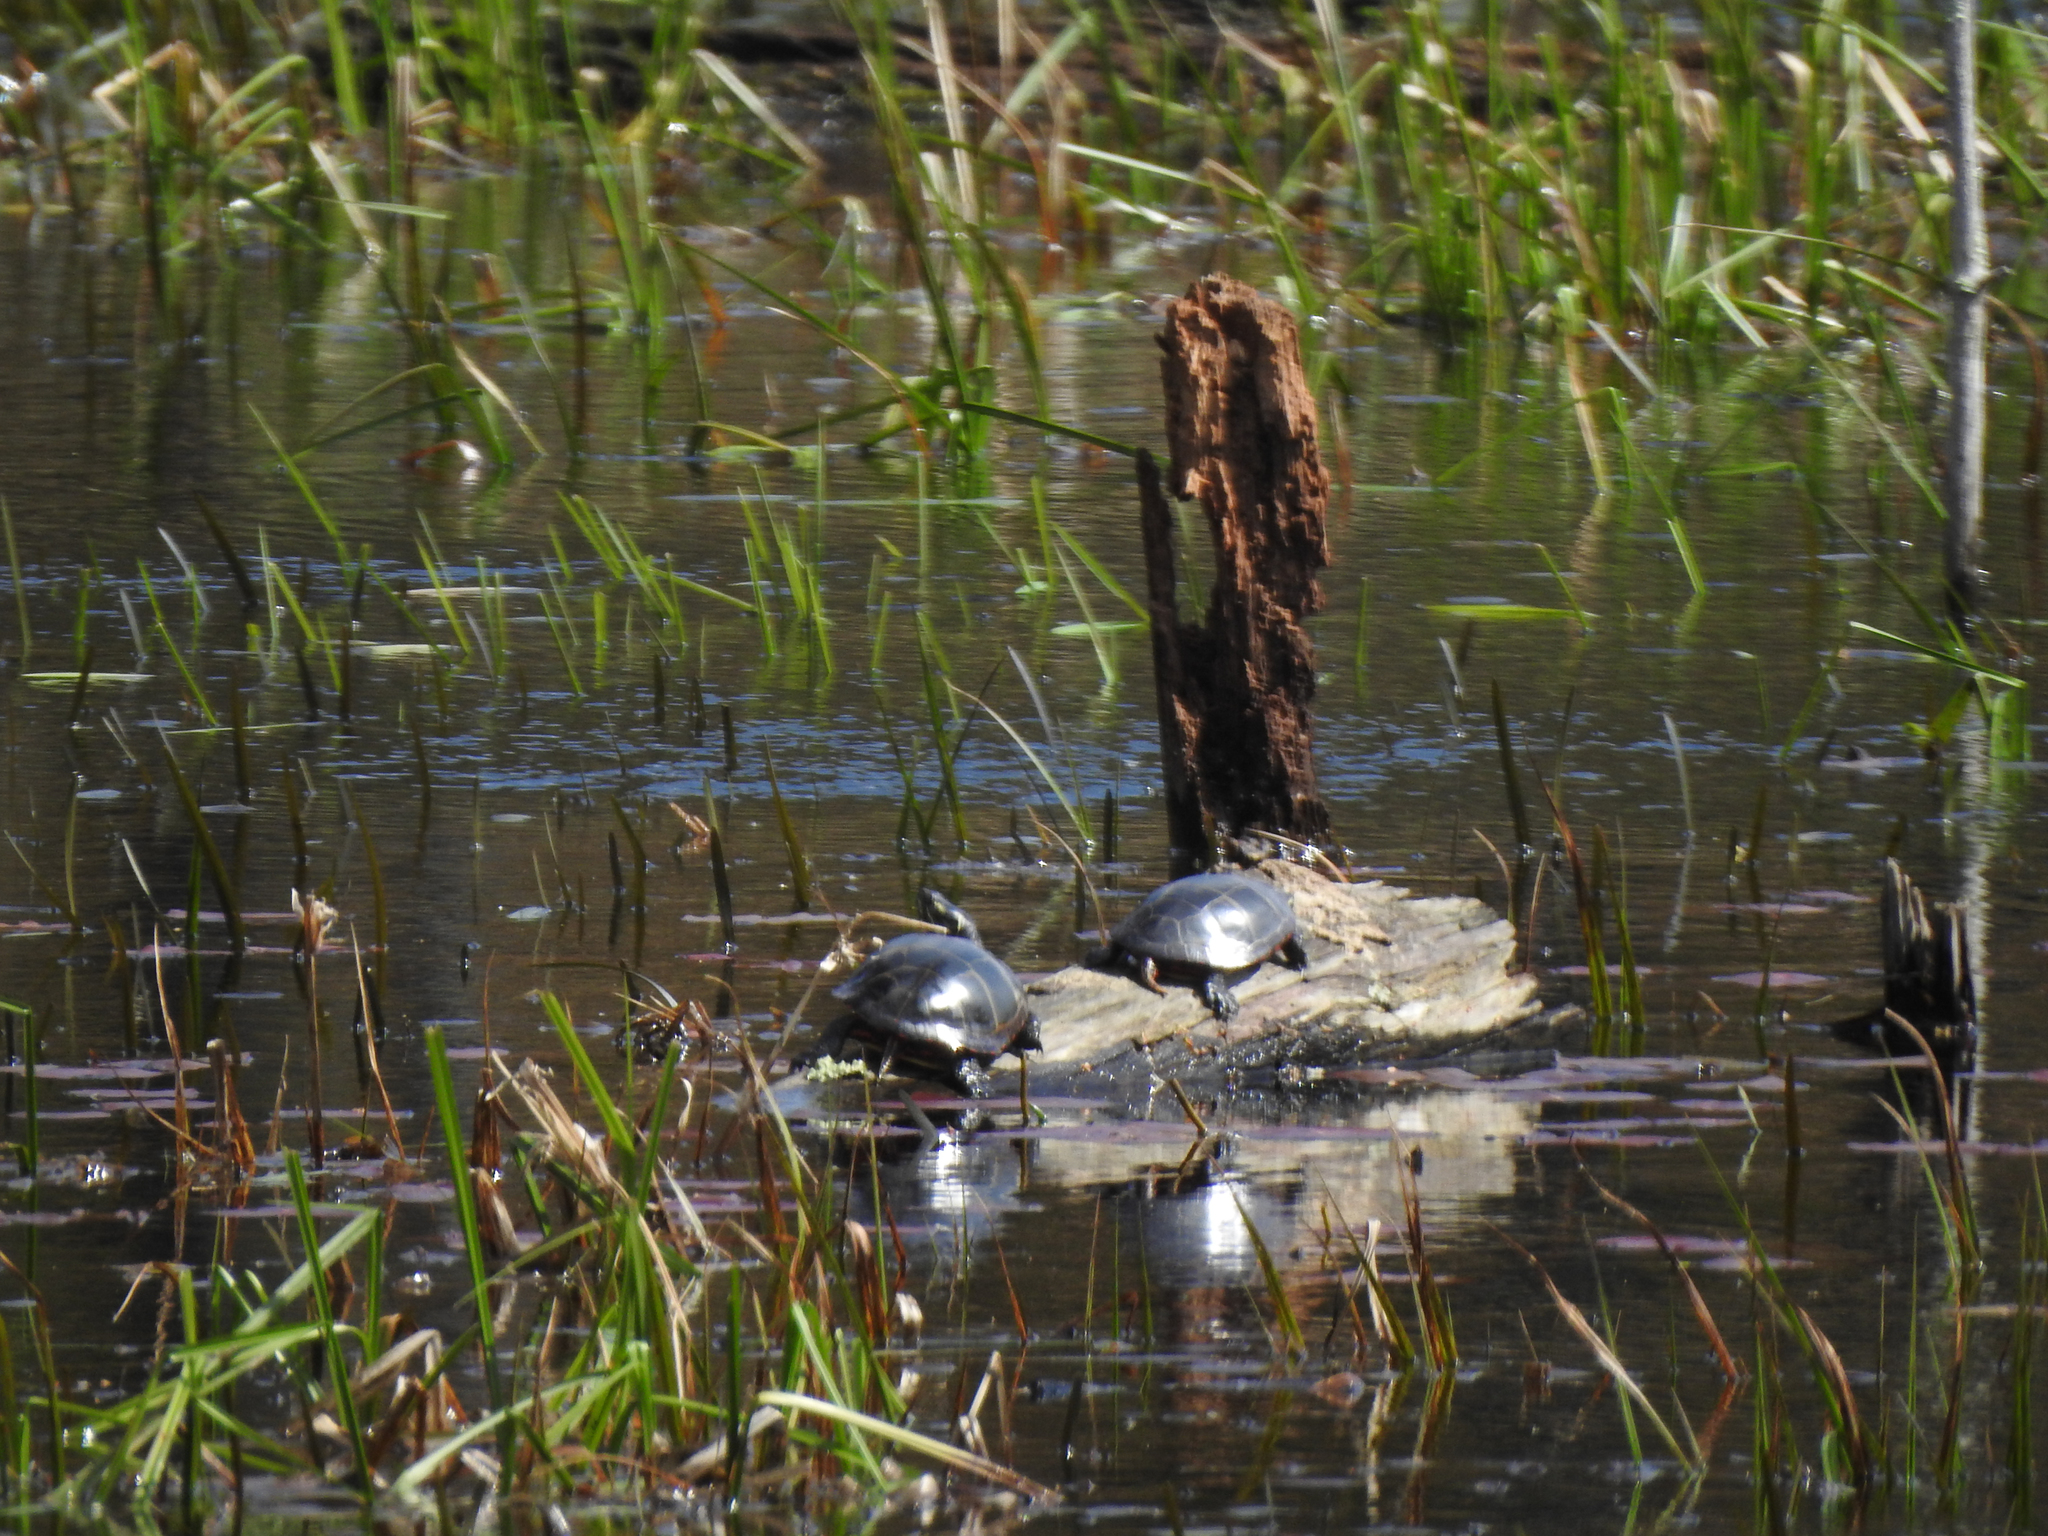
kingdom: Animalia
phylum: Chordata
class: Testudines
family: Emydidae
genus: Chrysemys
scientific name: Chrysemys picta
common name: Painted turtle
